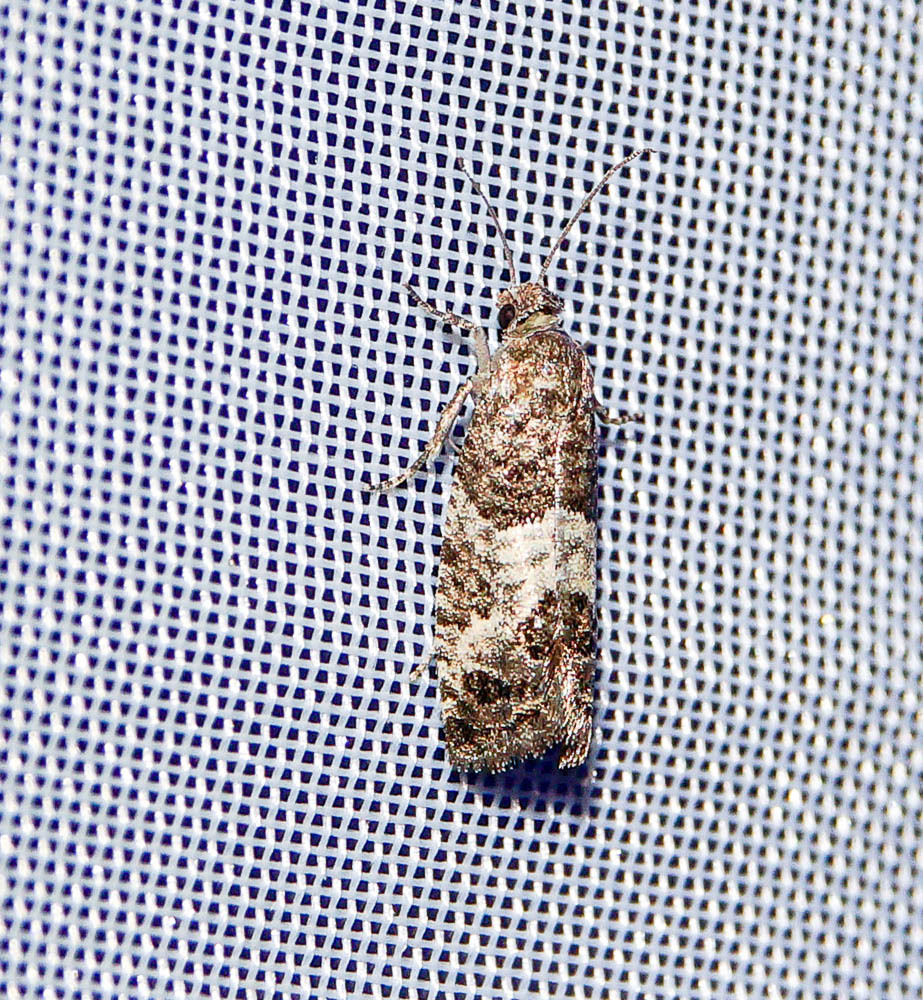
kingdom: Animalia
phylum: Arthropoda
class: Insecta
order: Lepidoptera
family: Tortricidae
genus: Spilonota
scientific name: Spilonota laricana
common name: Larch shoot tortricid moth
